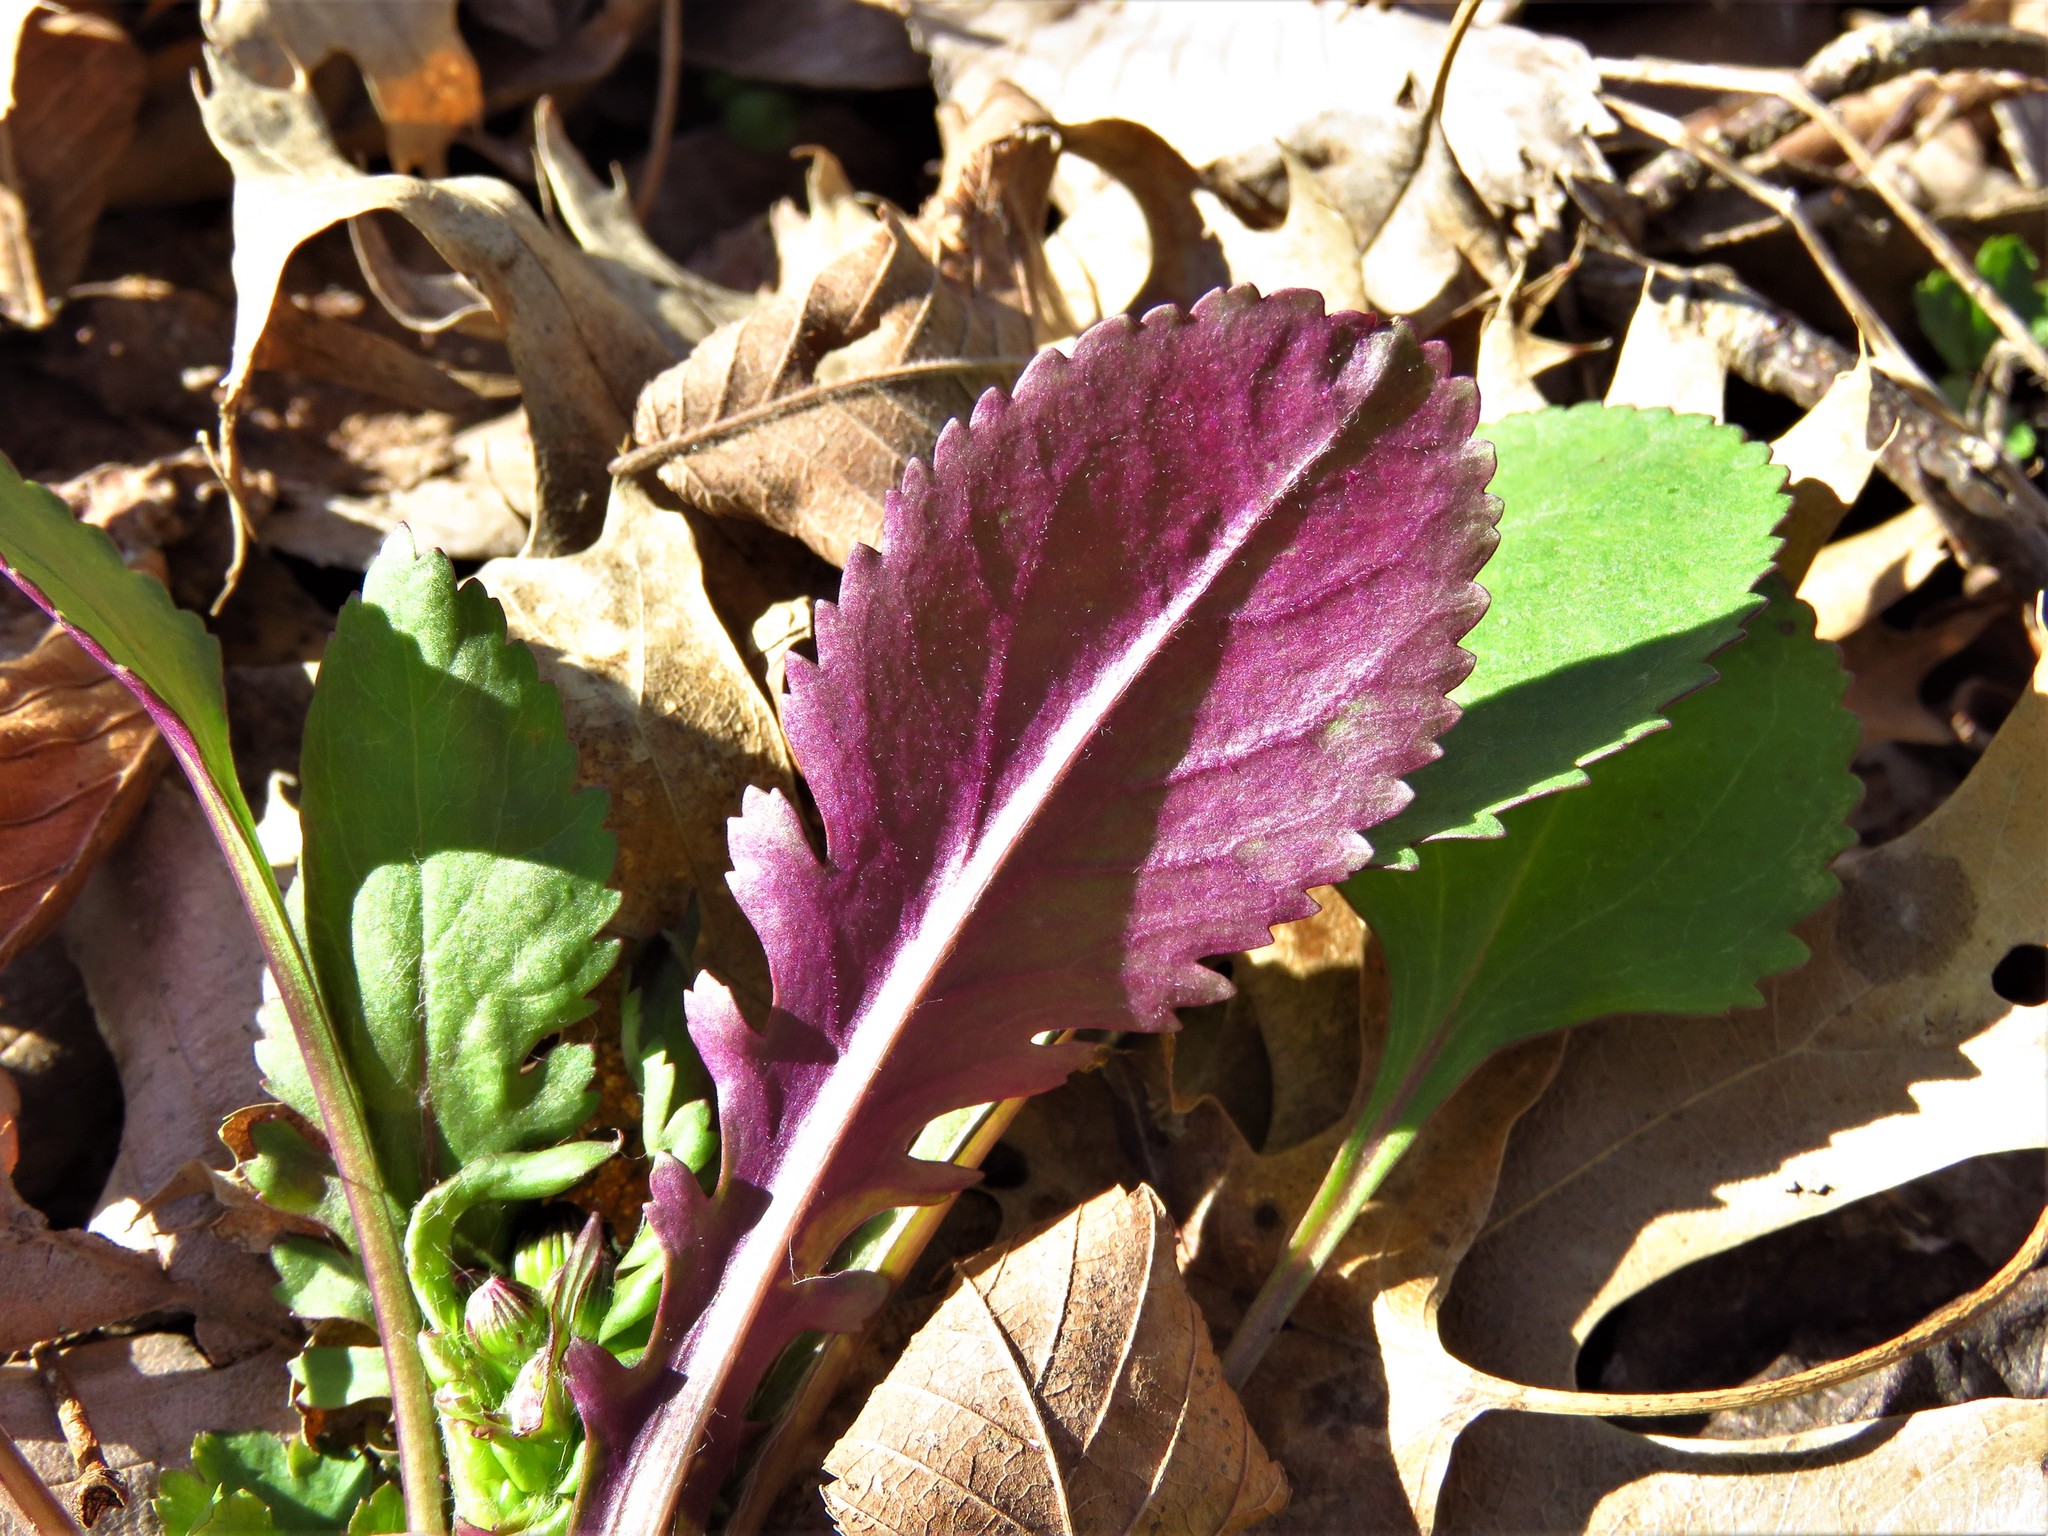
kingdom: Plantae
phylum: Tracheophyta
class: Magnoliopsida
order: Asterales
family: Asteraceae
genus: Packera
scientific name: Packera obovata
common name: Round-leaf ragwort
